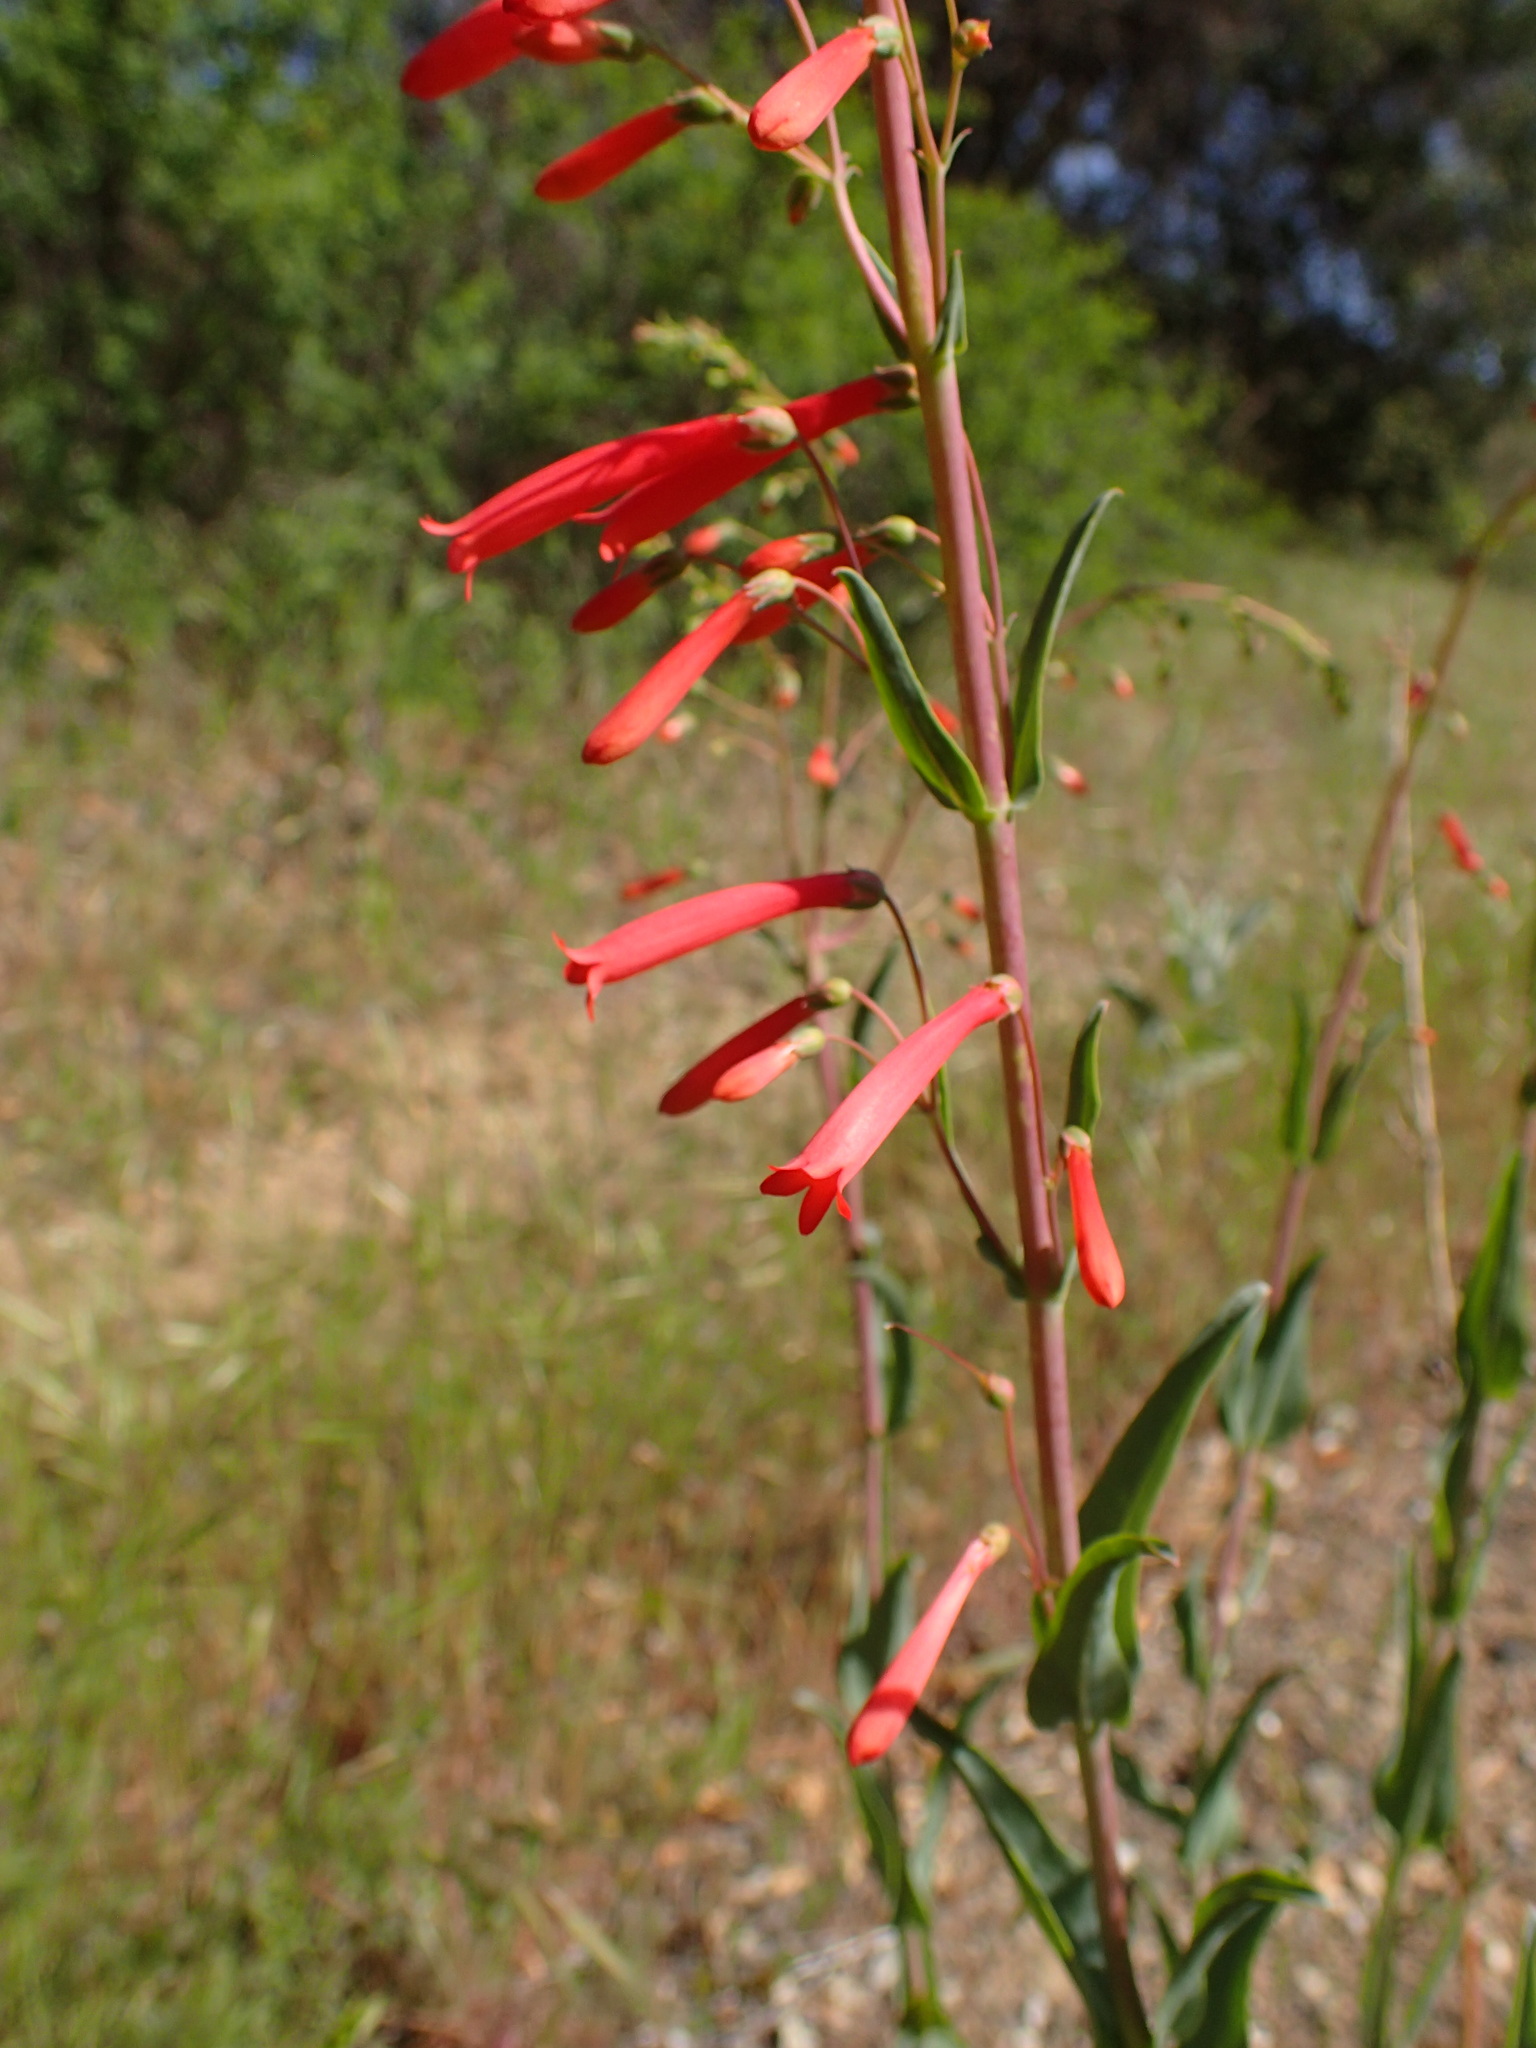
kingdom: Plantae
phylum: Tracheophyta
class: Magnoliopsida
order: Lamiales
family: Plantaginaceae
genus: Penstemon
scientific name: Penstemon centranthifolius
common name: Scarlet bugler
